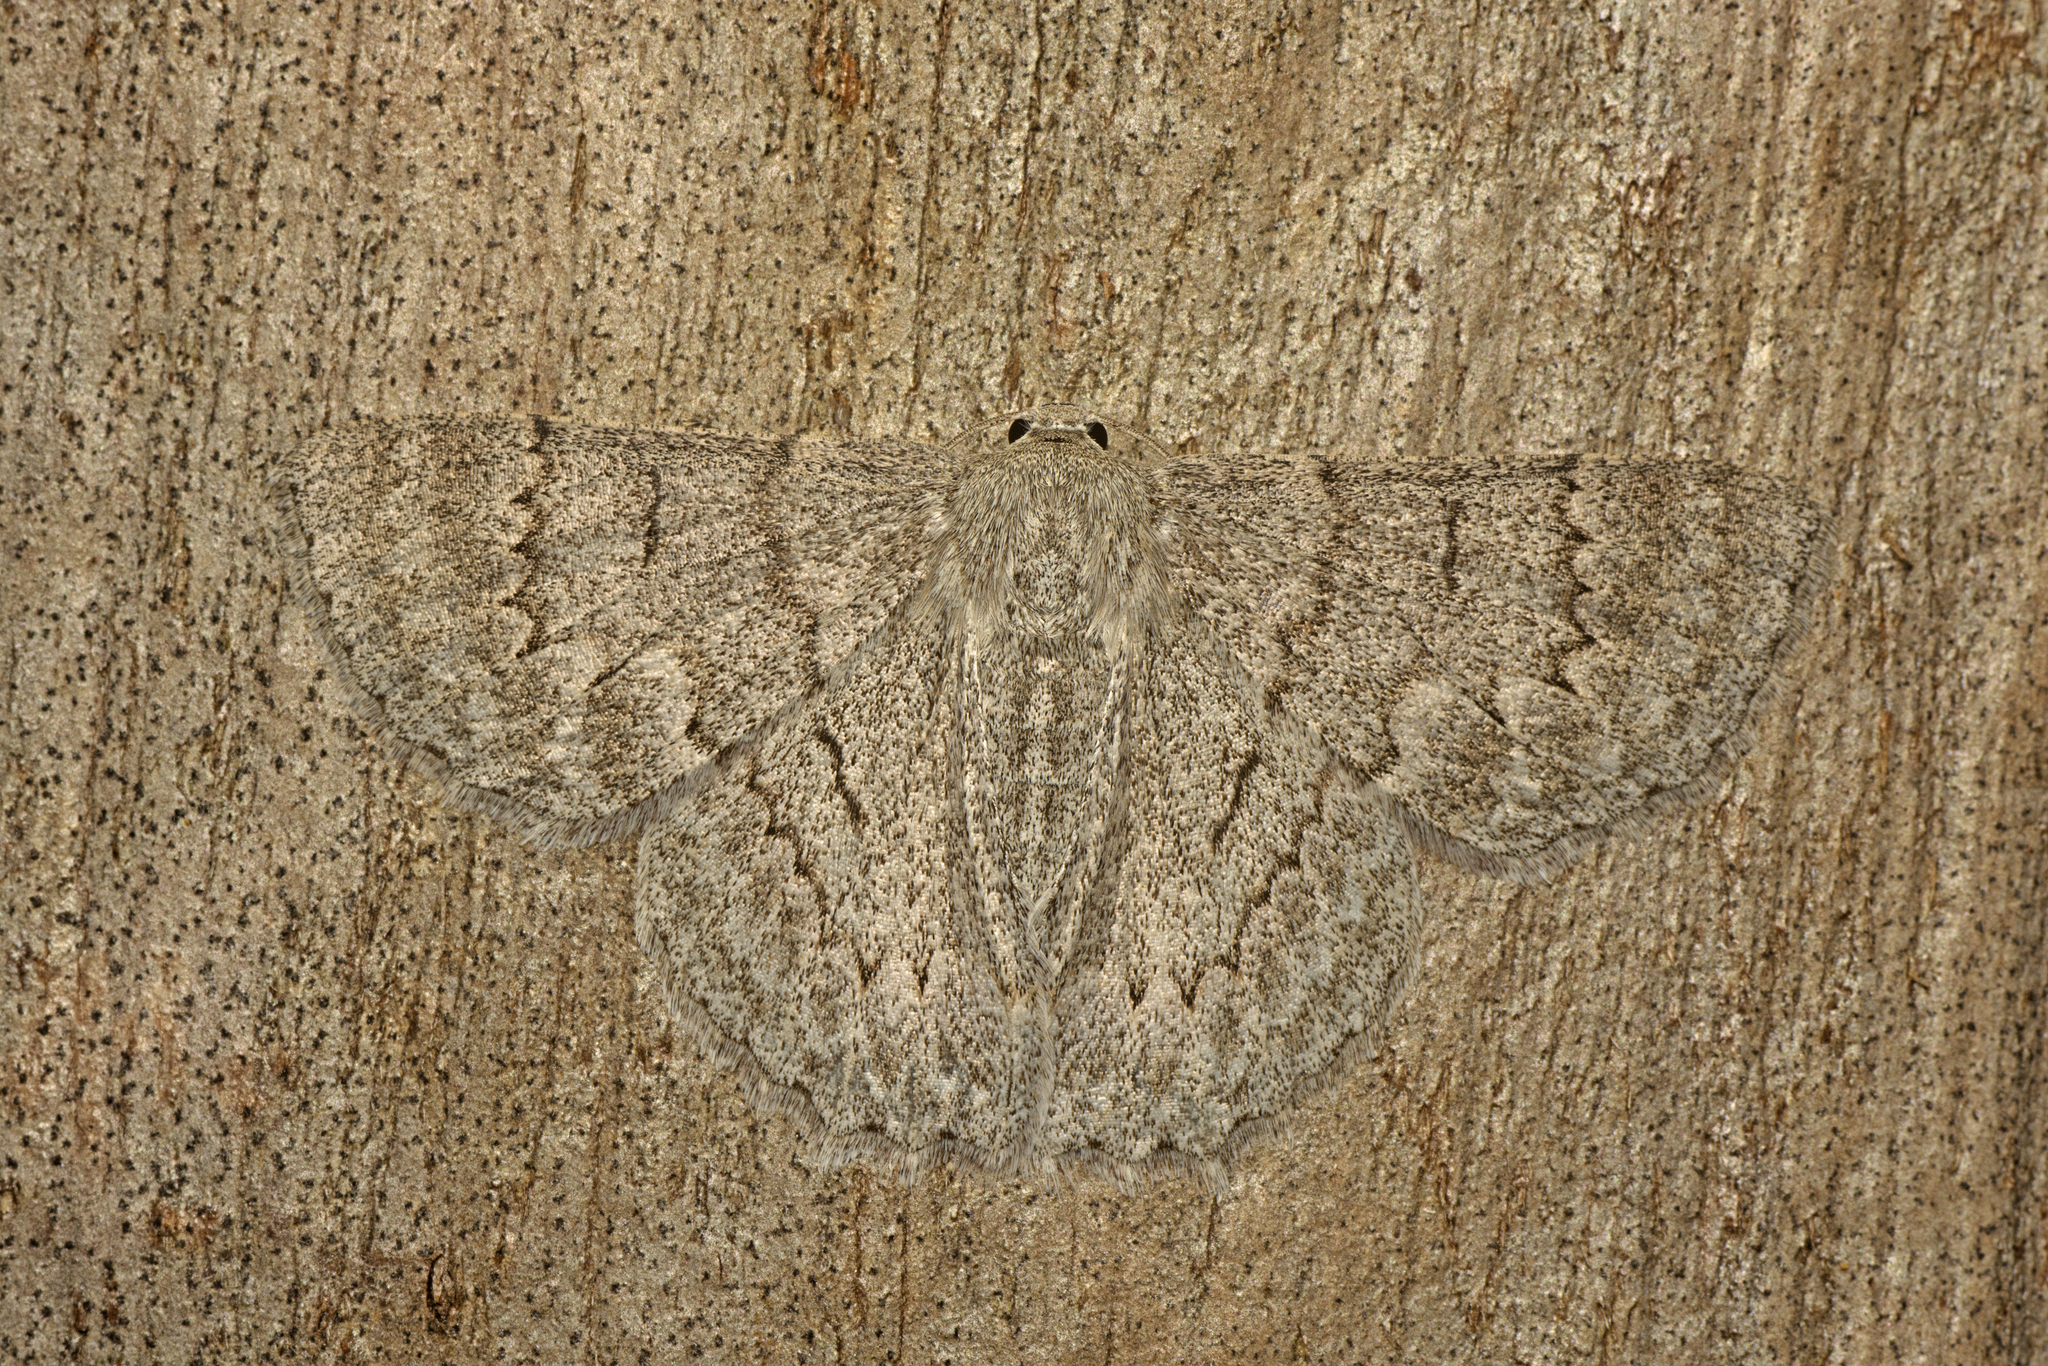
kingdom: Animalia
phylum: Arthropoda
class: Insecta
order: Lepidoptera
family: Geometridae
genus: Crypsiphona
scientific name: Crypsiphona ocultaria
